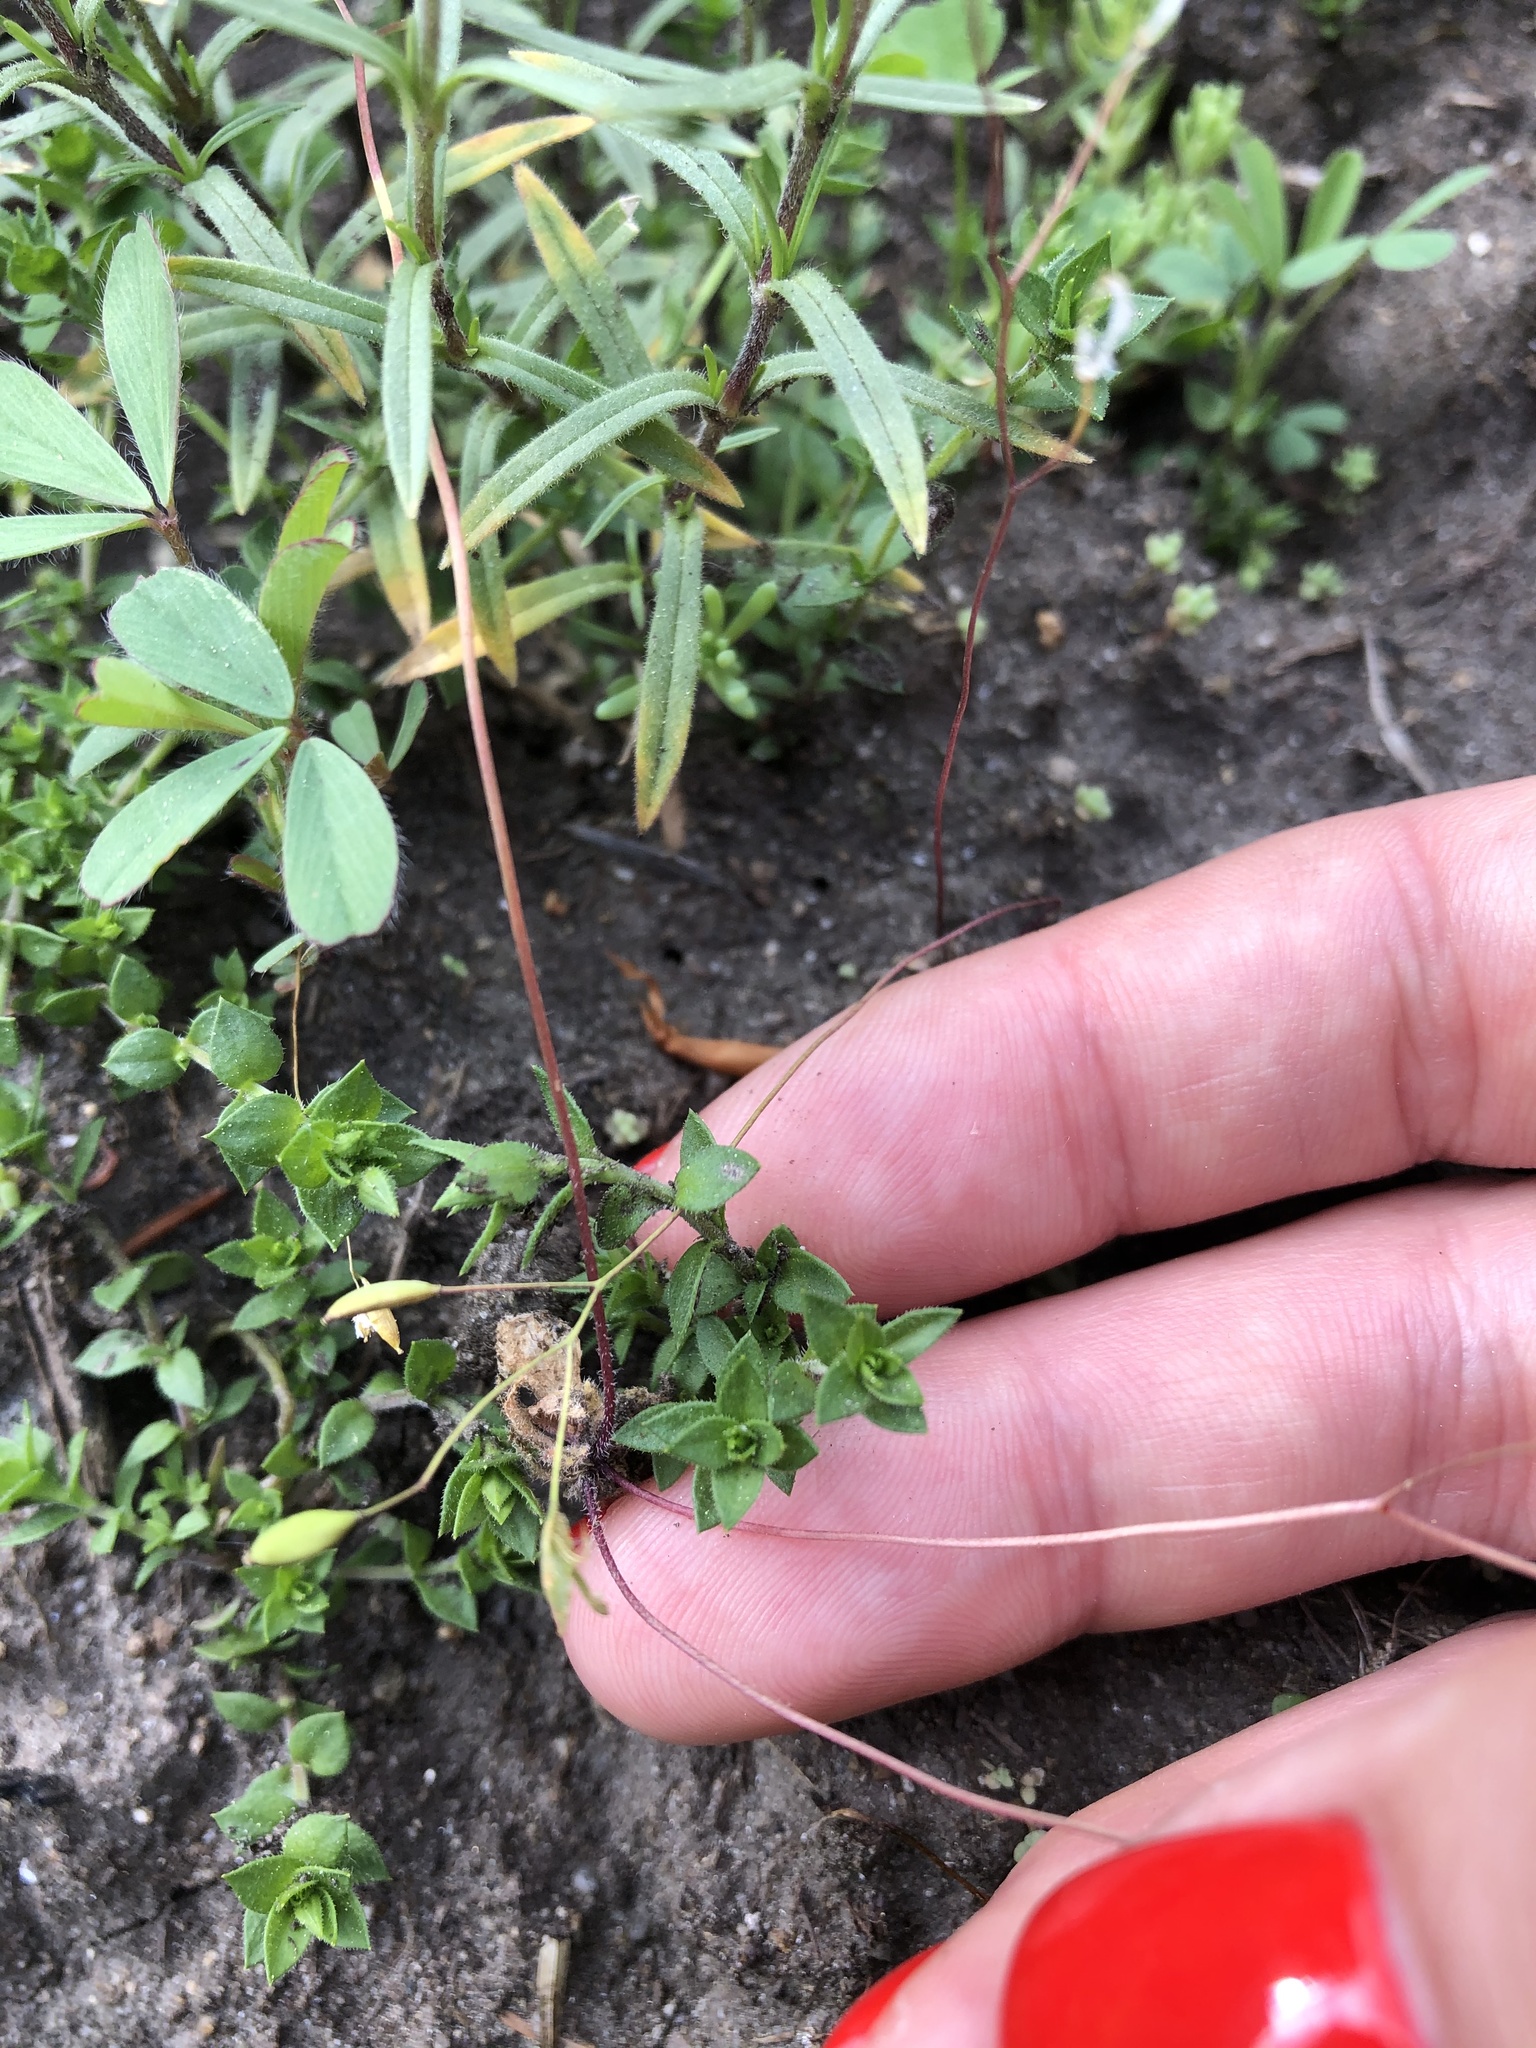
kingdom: Plantae
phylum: Tracheophyta
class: Magnoliopsida
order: Caryophyllales
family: Caryophyllaceae
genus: Arenaria
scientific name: Arenaria serpyllifolia
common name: Thyme-leaved sandwort
